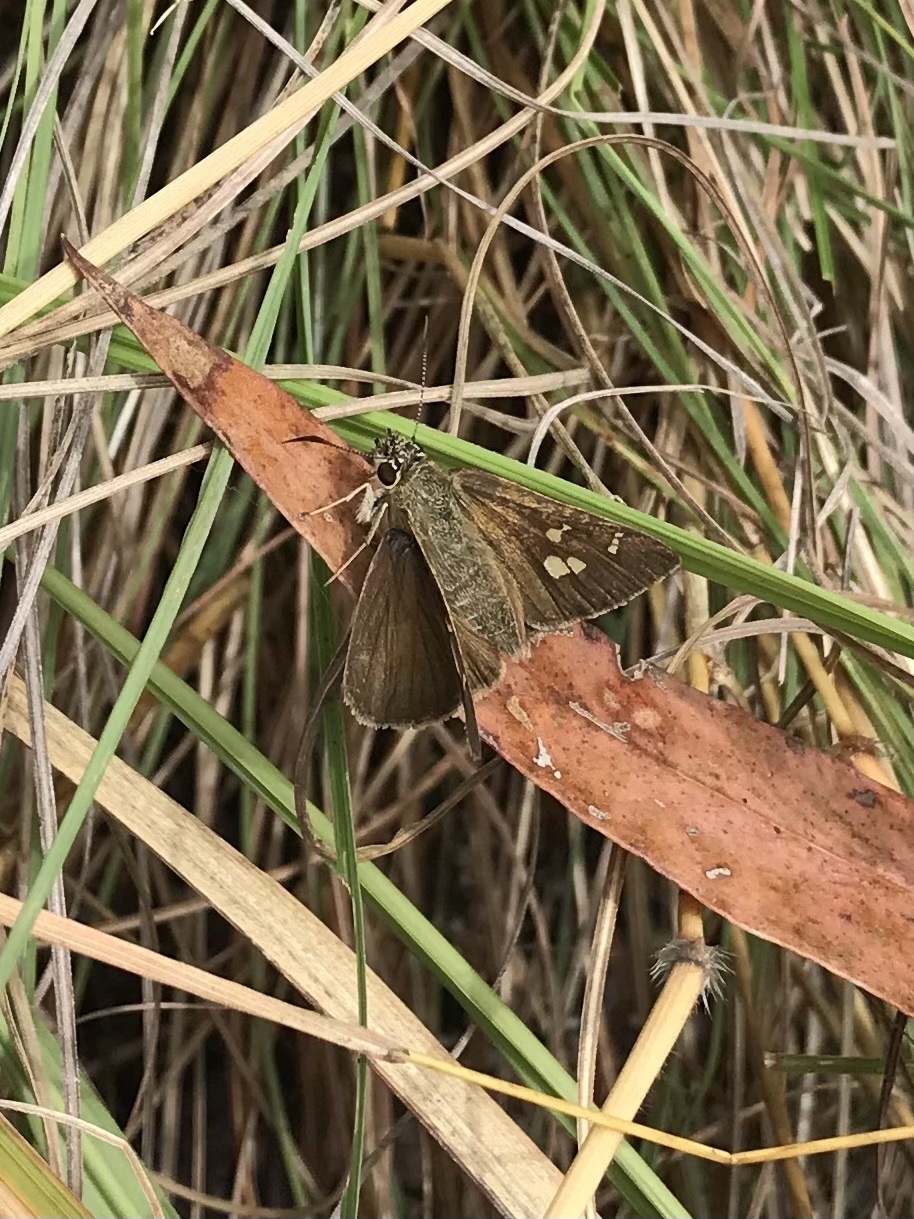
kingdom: Animalia
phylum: Arthropoda
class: Insecta
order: Lepidoptera
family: Hesperiidae
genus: Toxidia
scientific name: Toxidia
